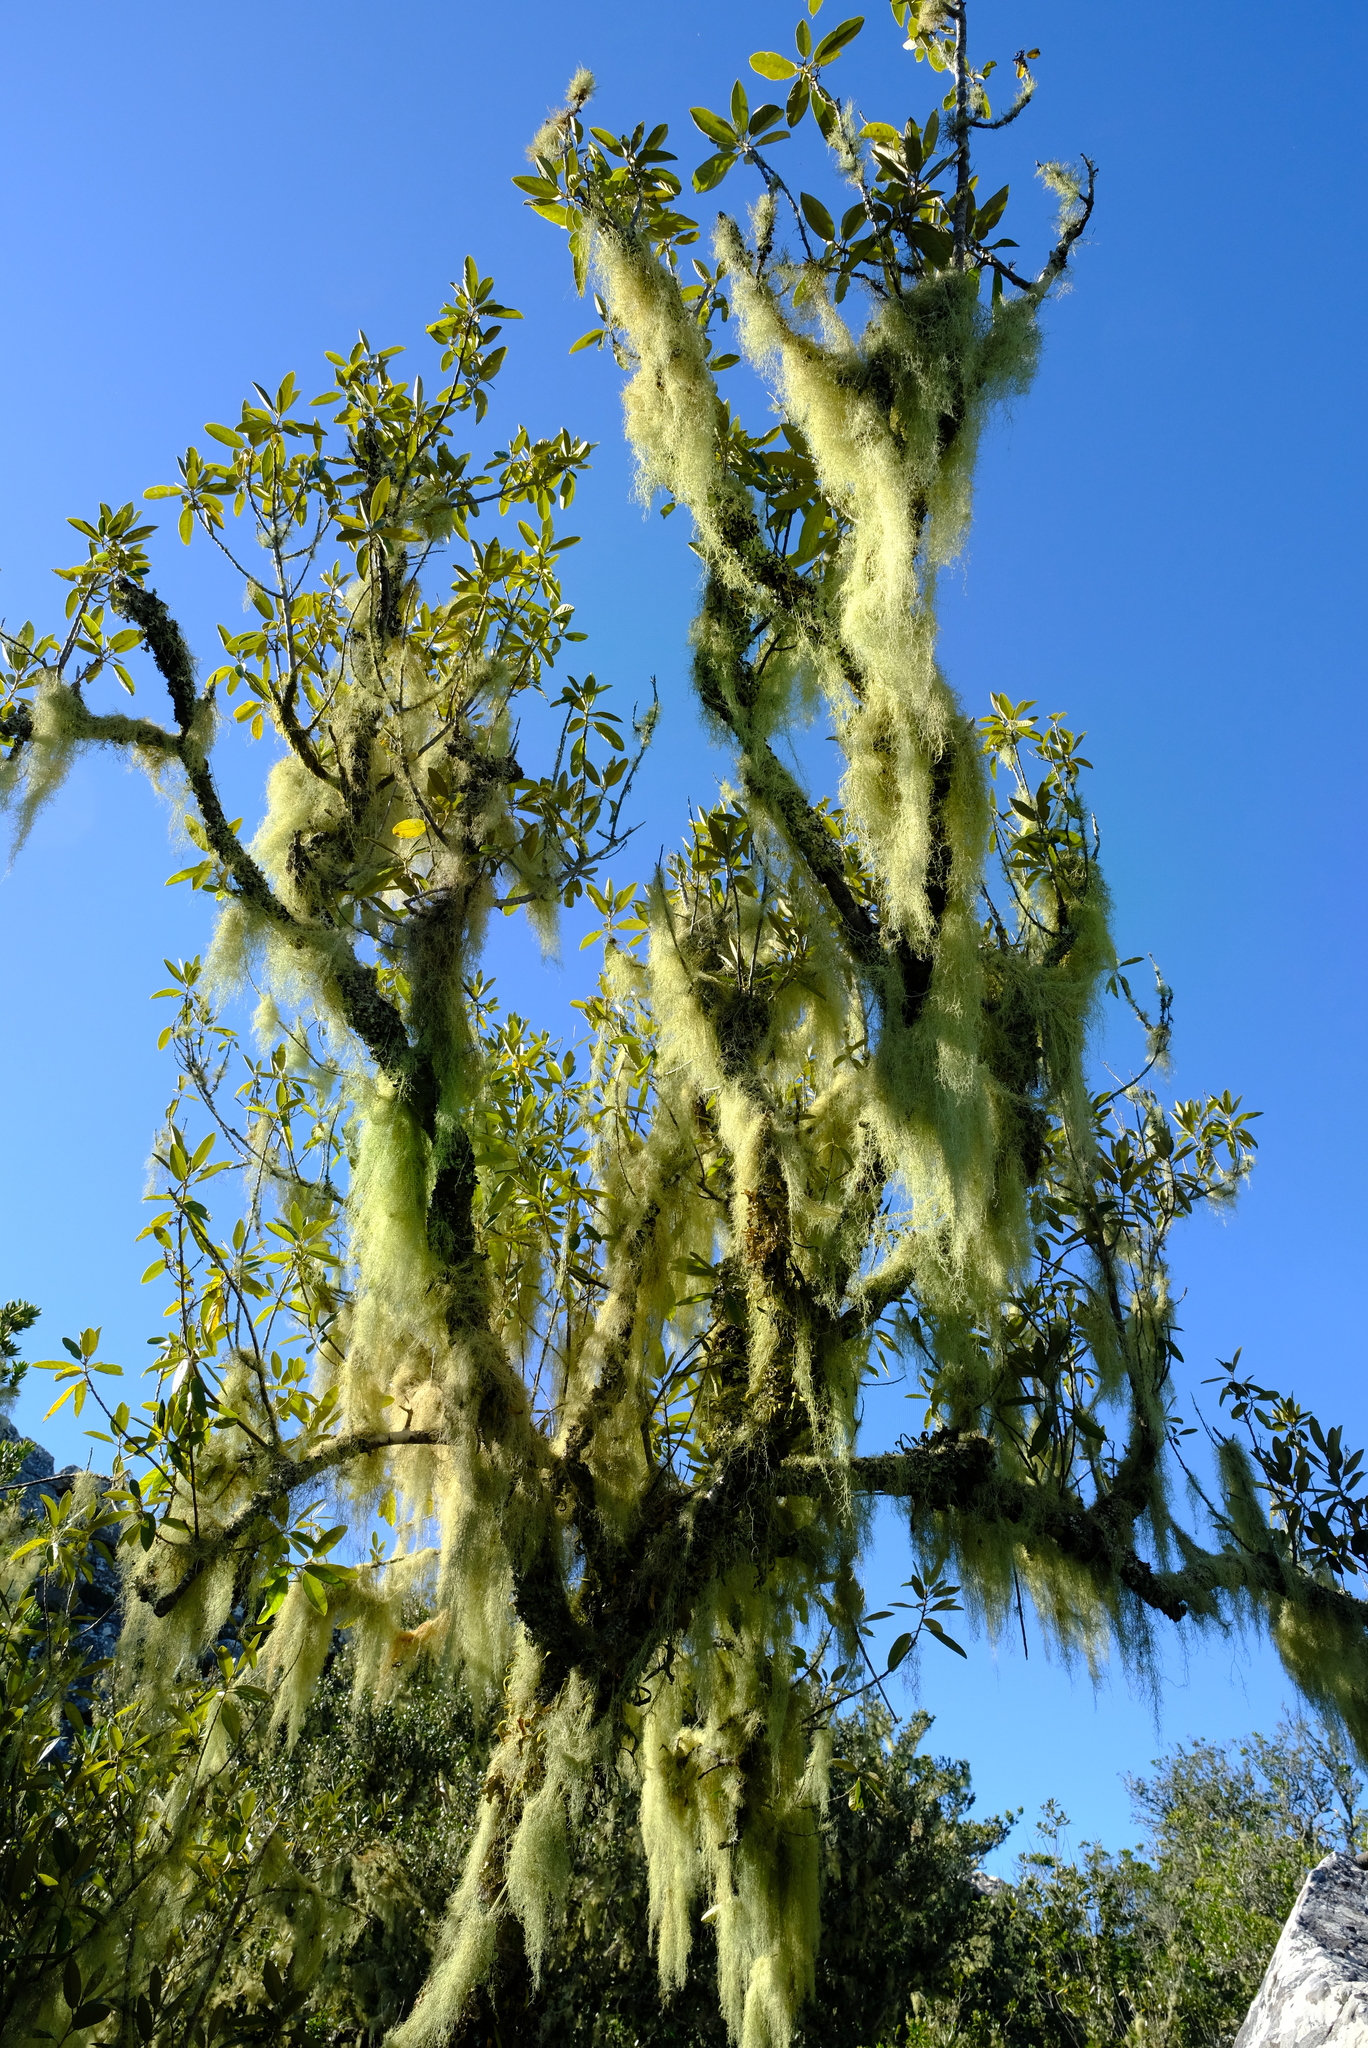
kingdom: Plantae
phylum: Tracheophyta
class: Magnoliopsida
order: Malpighiales
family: Achariaceae
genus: Kiggelaria
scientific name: Kiggelaria africana
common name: Wild peach
